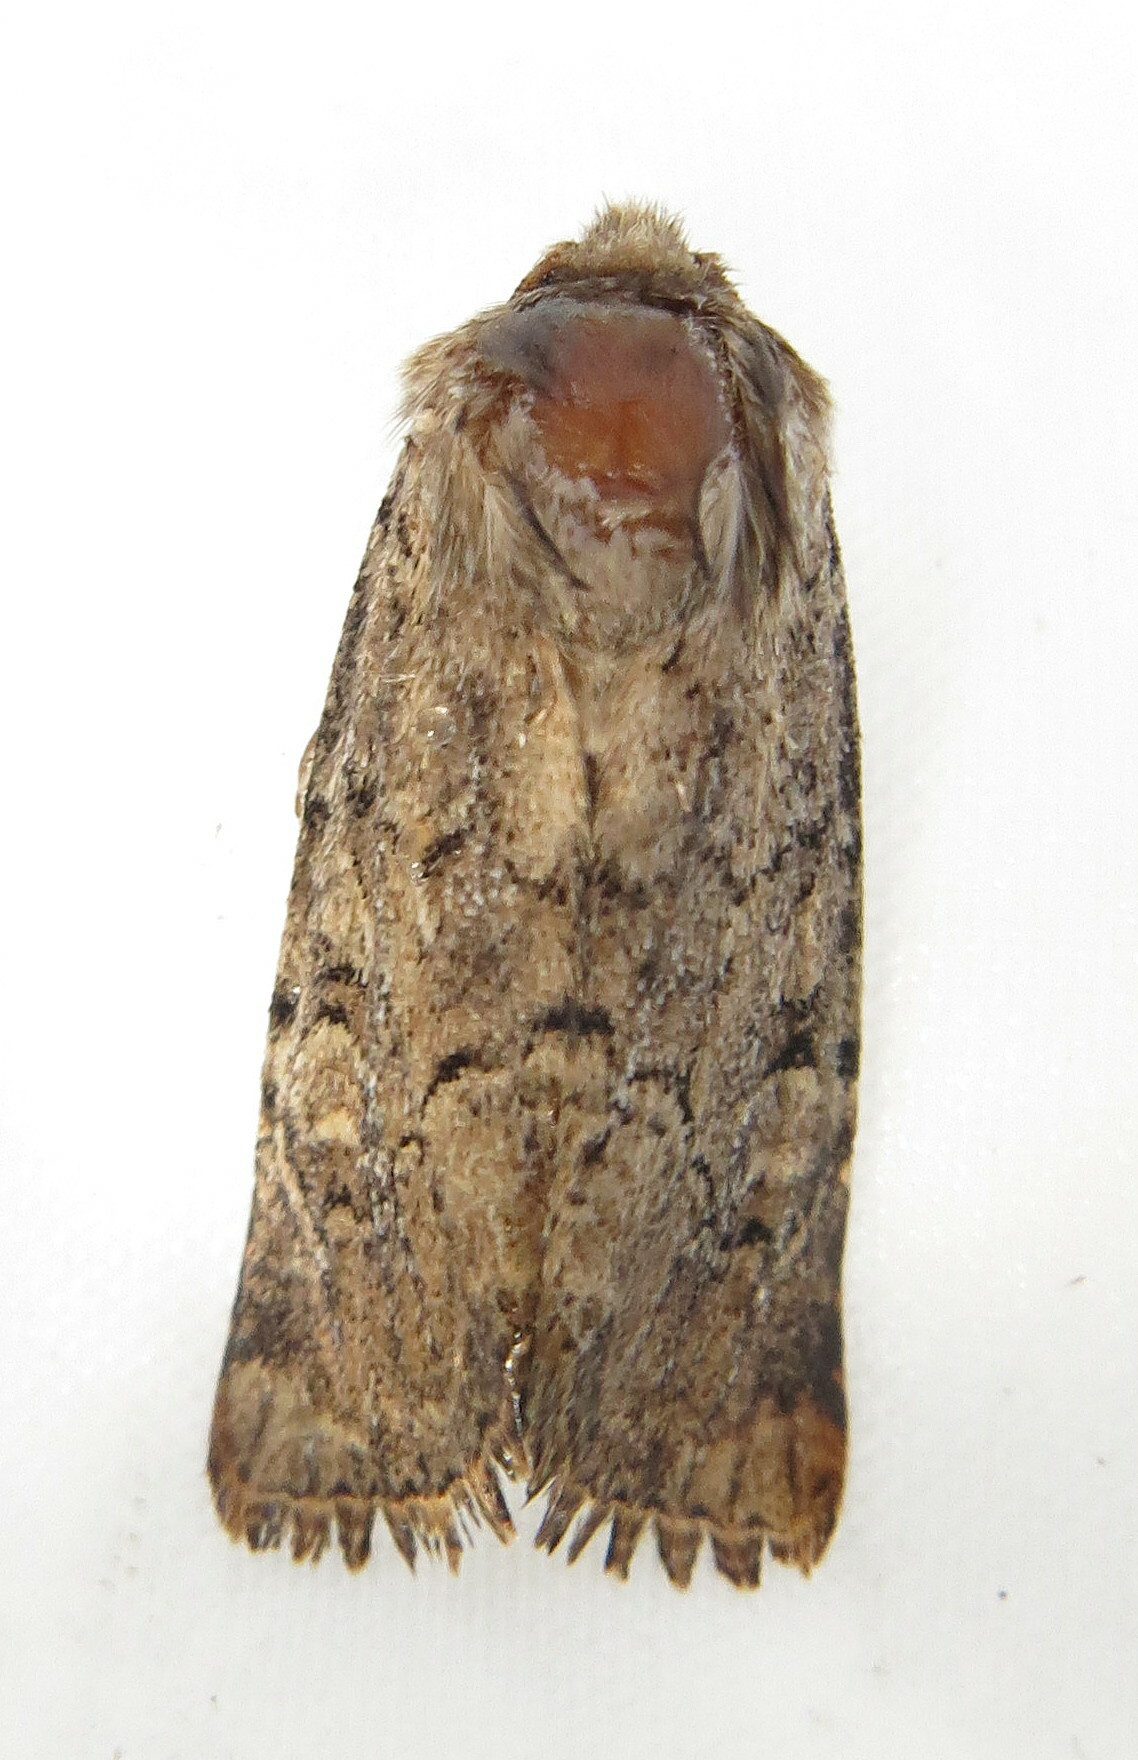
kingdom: Animalia
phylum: Arthropoda
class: Insecta
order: Lepidoptera
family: Noctuidae
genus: Luperina
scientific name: Luperina testacea
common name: Flounced rustic
